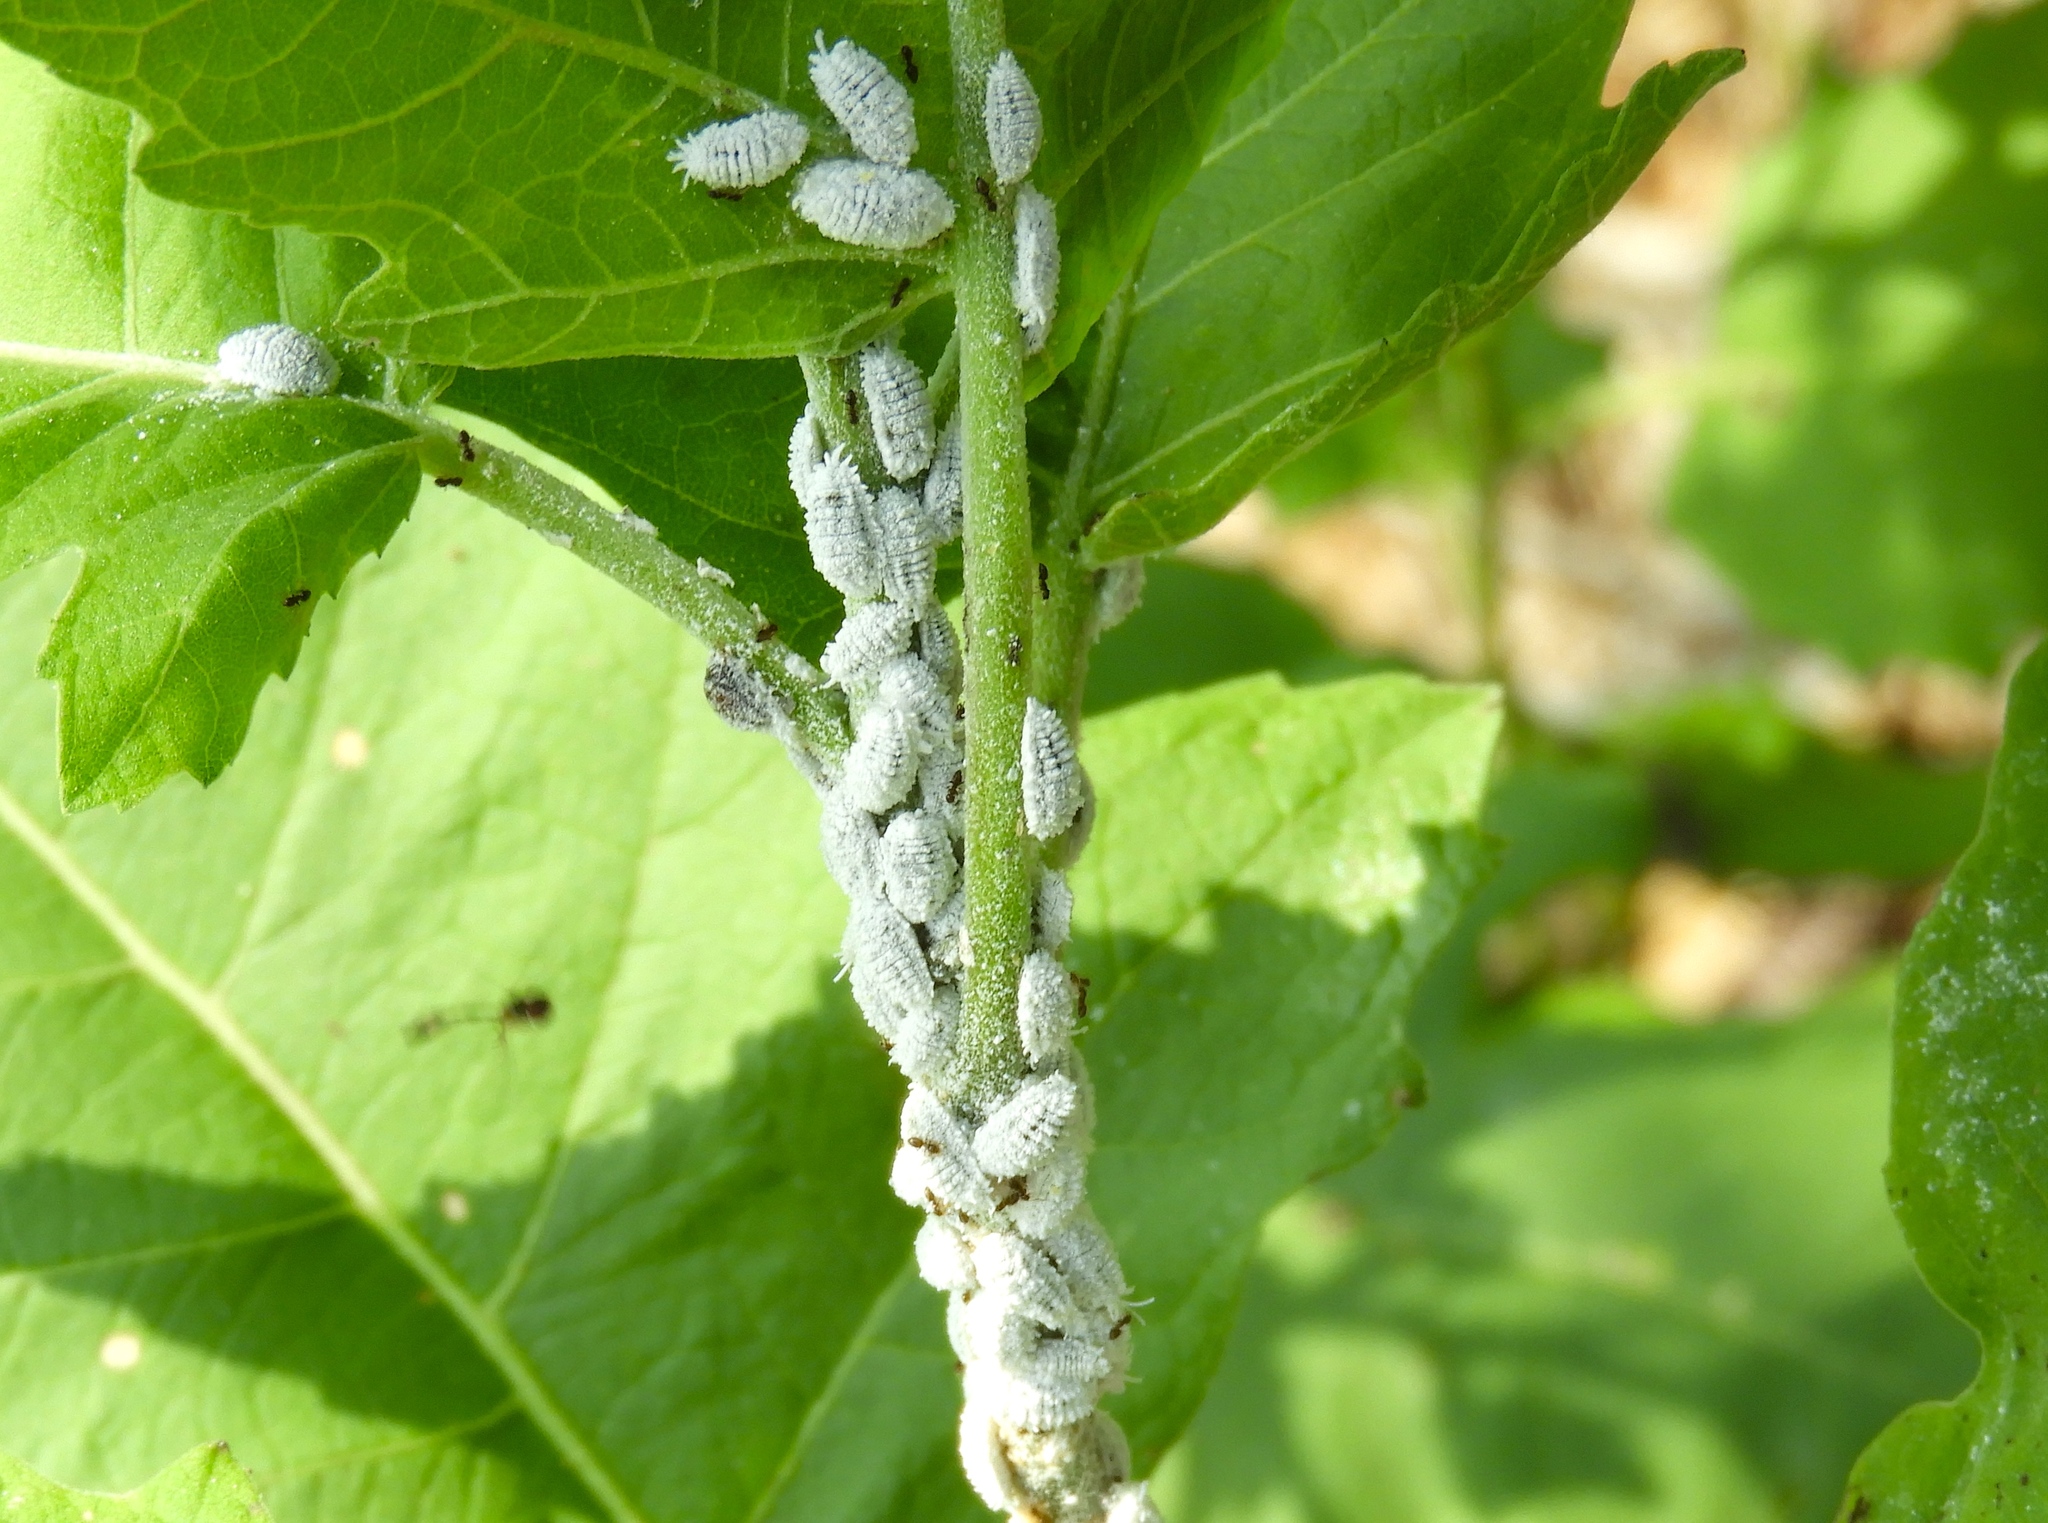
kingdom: Animalia
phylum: Arthropoda
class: Insecta
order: Hemiptera
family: Pseudococcidae
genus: Planococcus
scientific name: Planococcus
